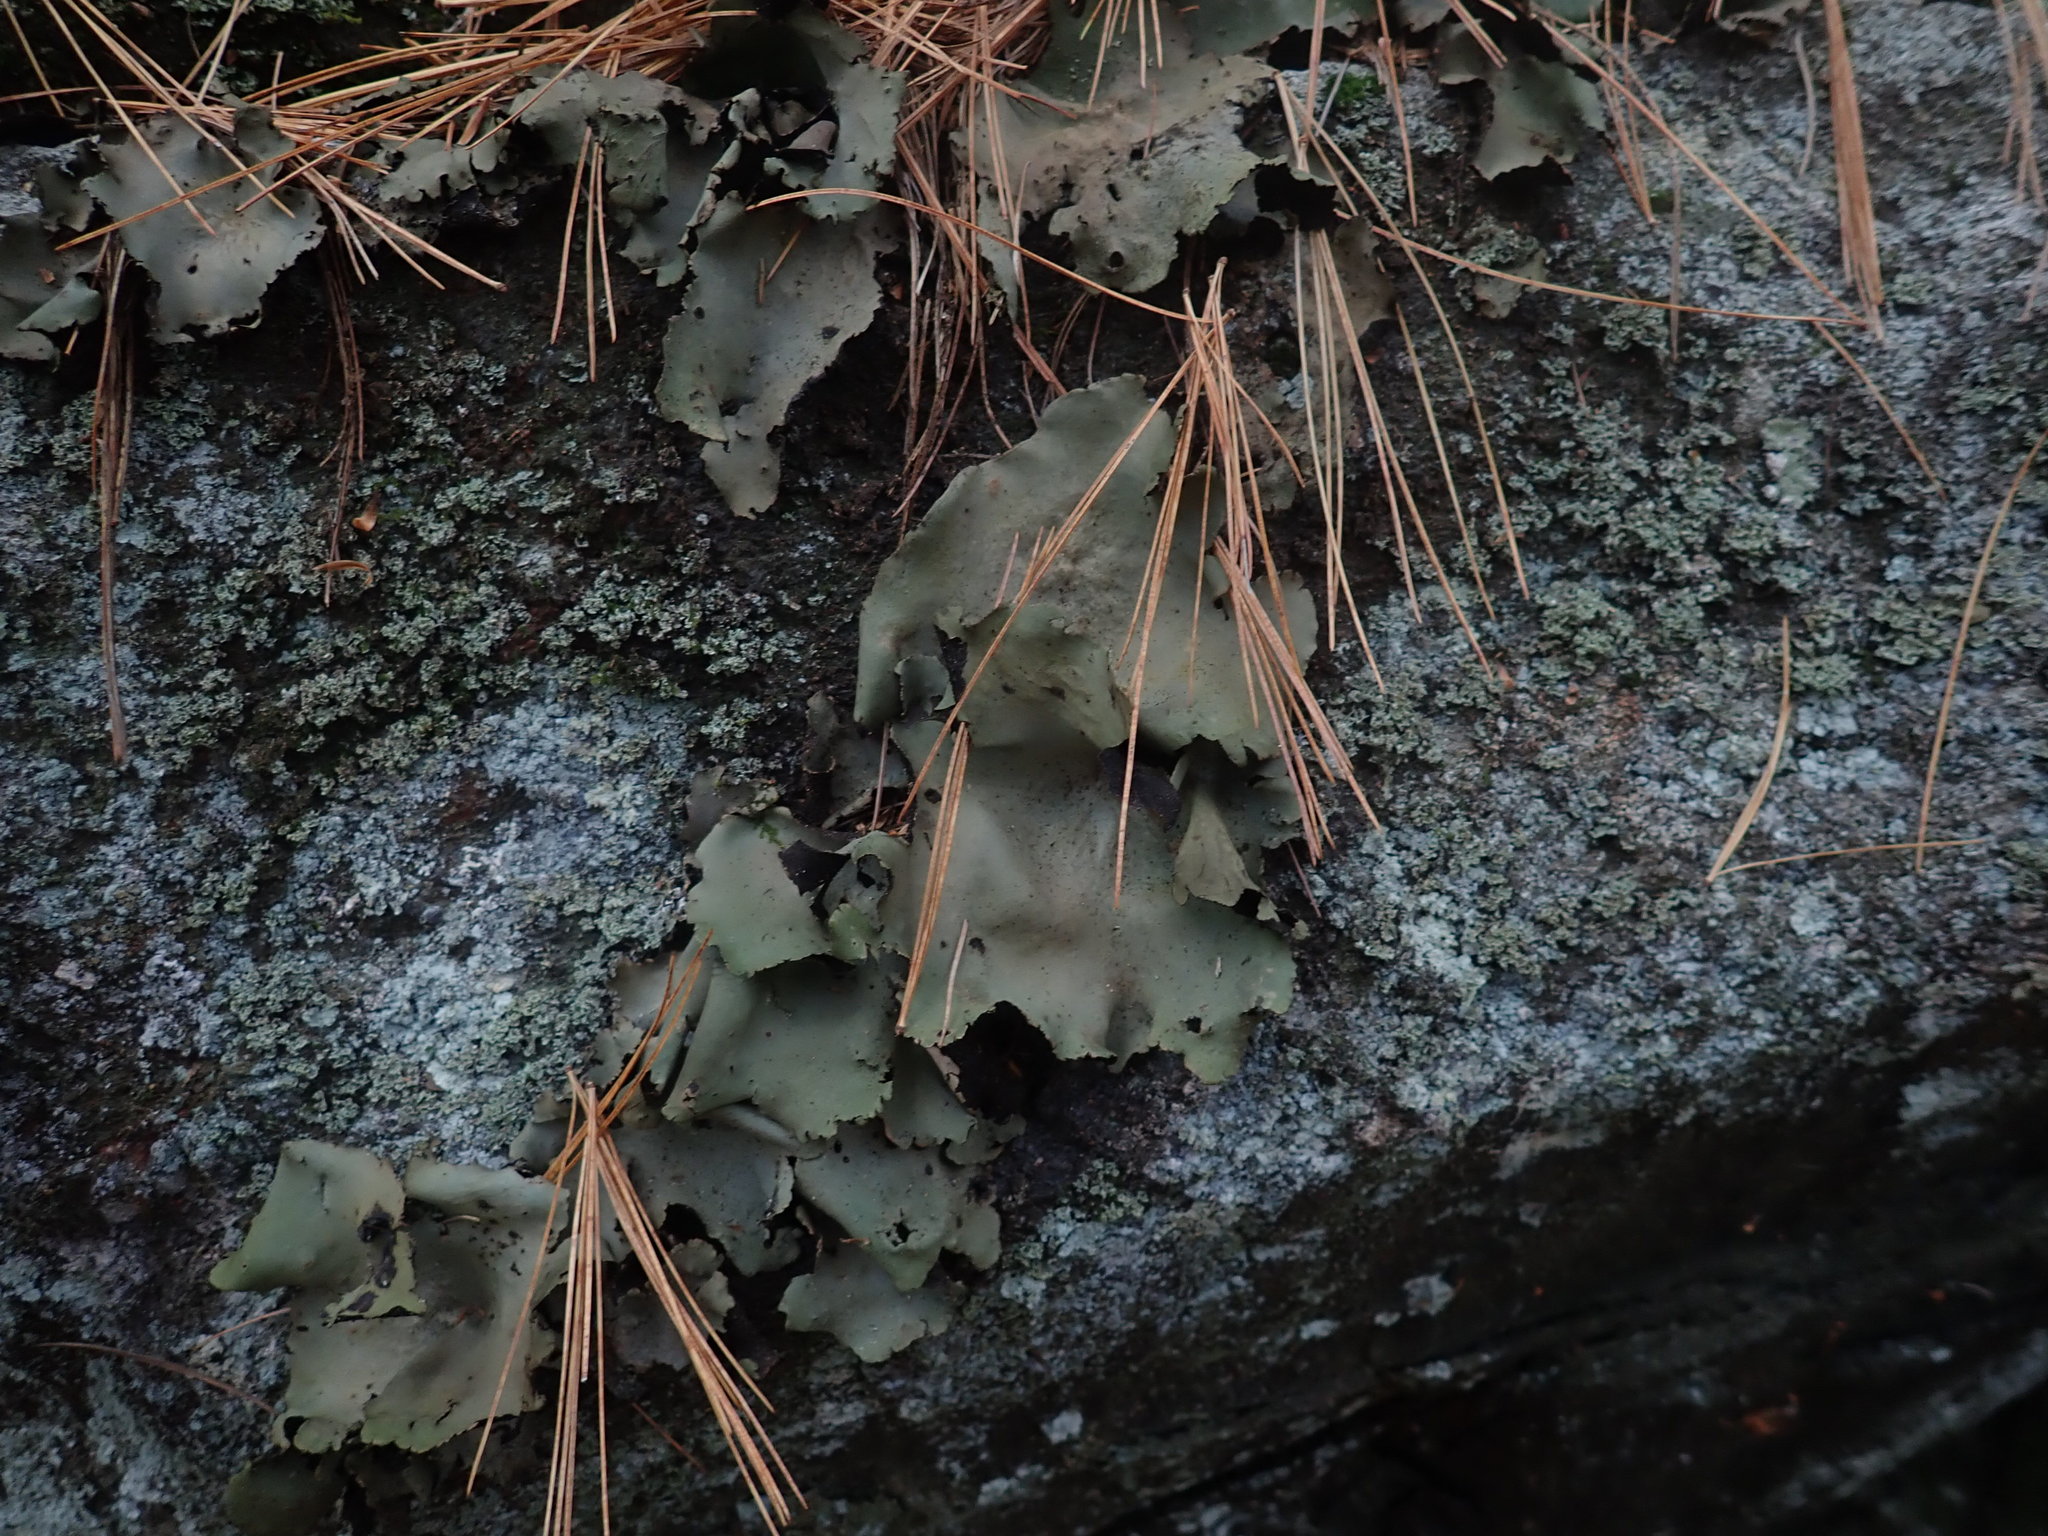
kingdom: Fungi
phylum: Ascomycota
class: Lecanoromycetes
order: Umbilicariales
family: Umbilicariaceae
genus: Umbilicaria
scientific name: Umbilicaria mammulata
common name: Smooth rock tripe
